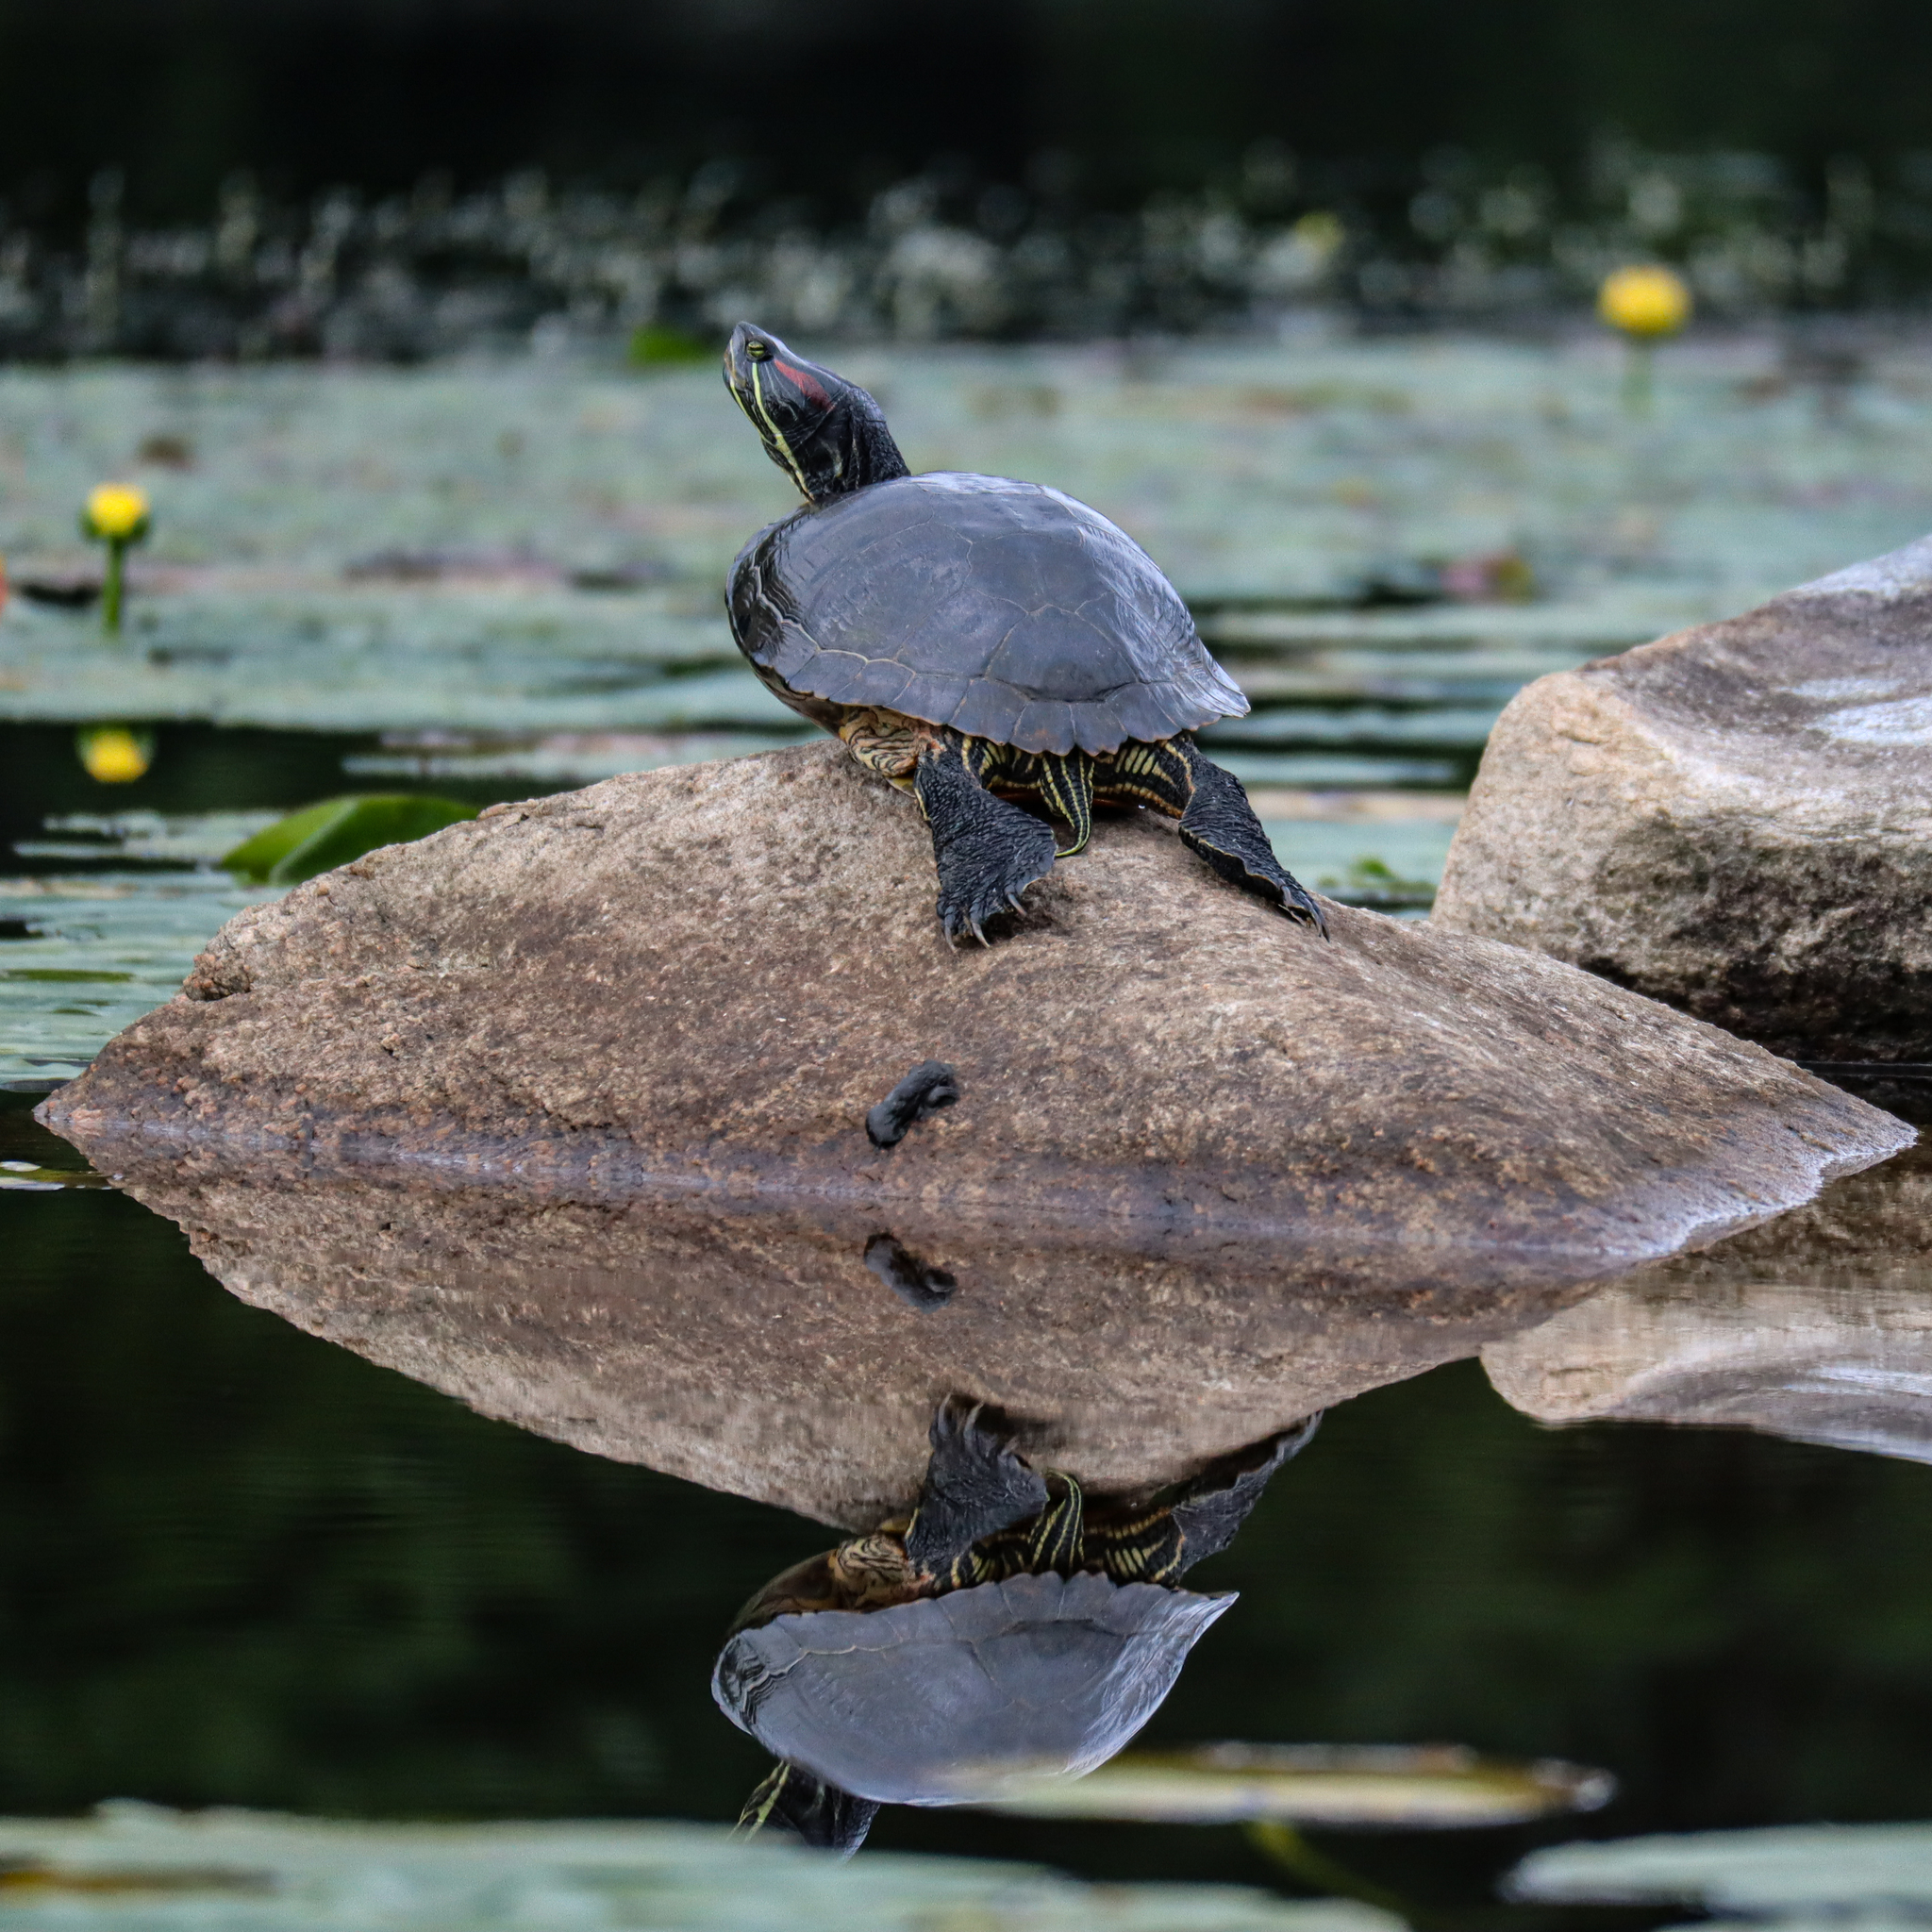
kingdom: Animalia
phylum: Chordata
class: Testudines
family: Emydidae
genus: Trachemys
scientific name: Trachemys scripta
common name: Slider
